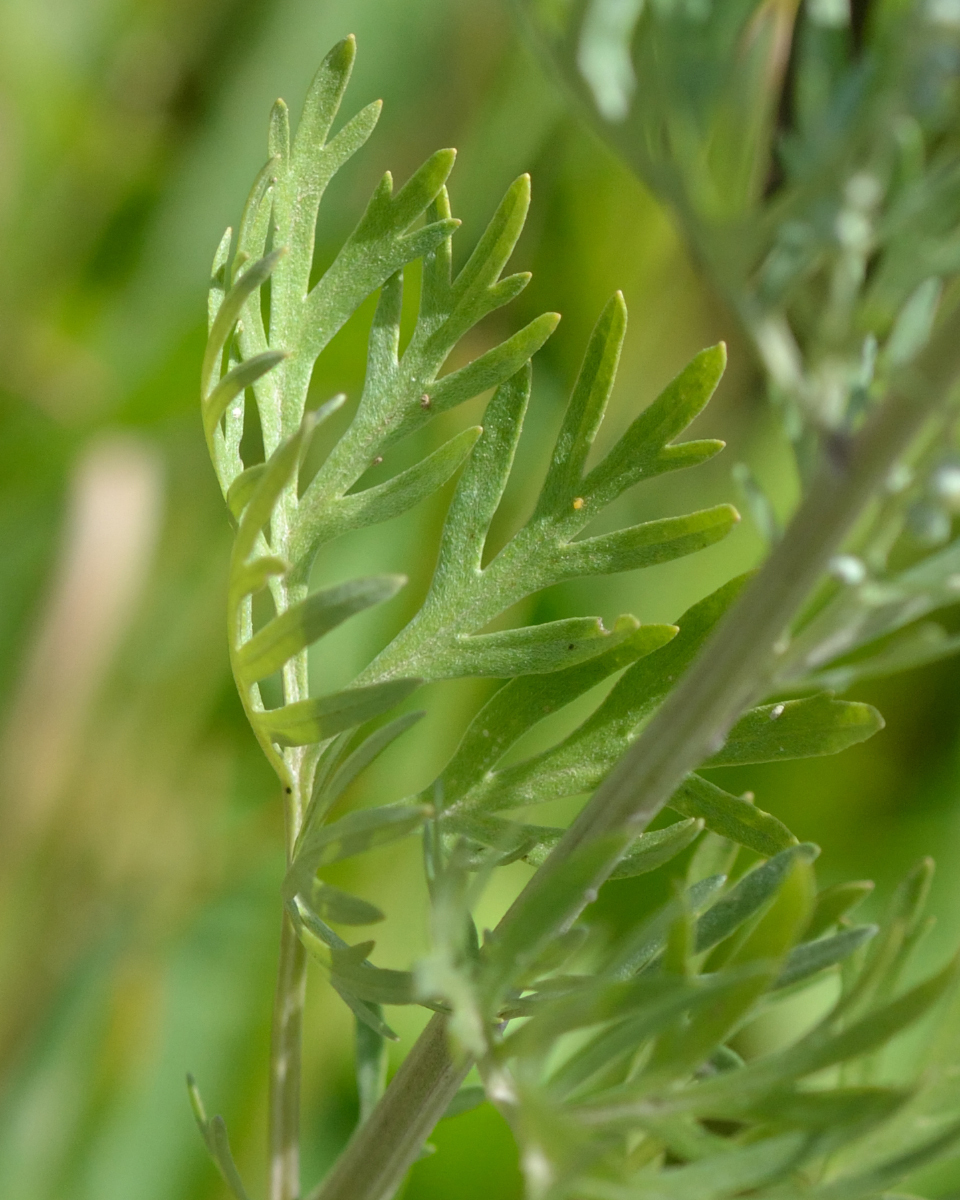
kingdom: Plantae
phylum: Tracheophyta
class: Magnoliopsida
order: Asterales
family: Asteraceae
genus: Artemisia
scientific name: Artemisia absinthium
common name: Wormwood
